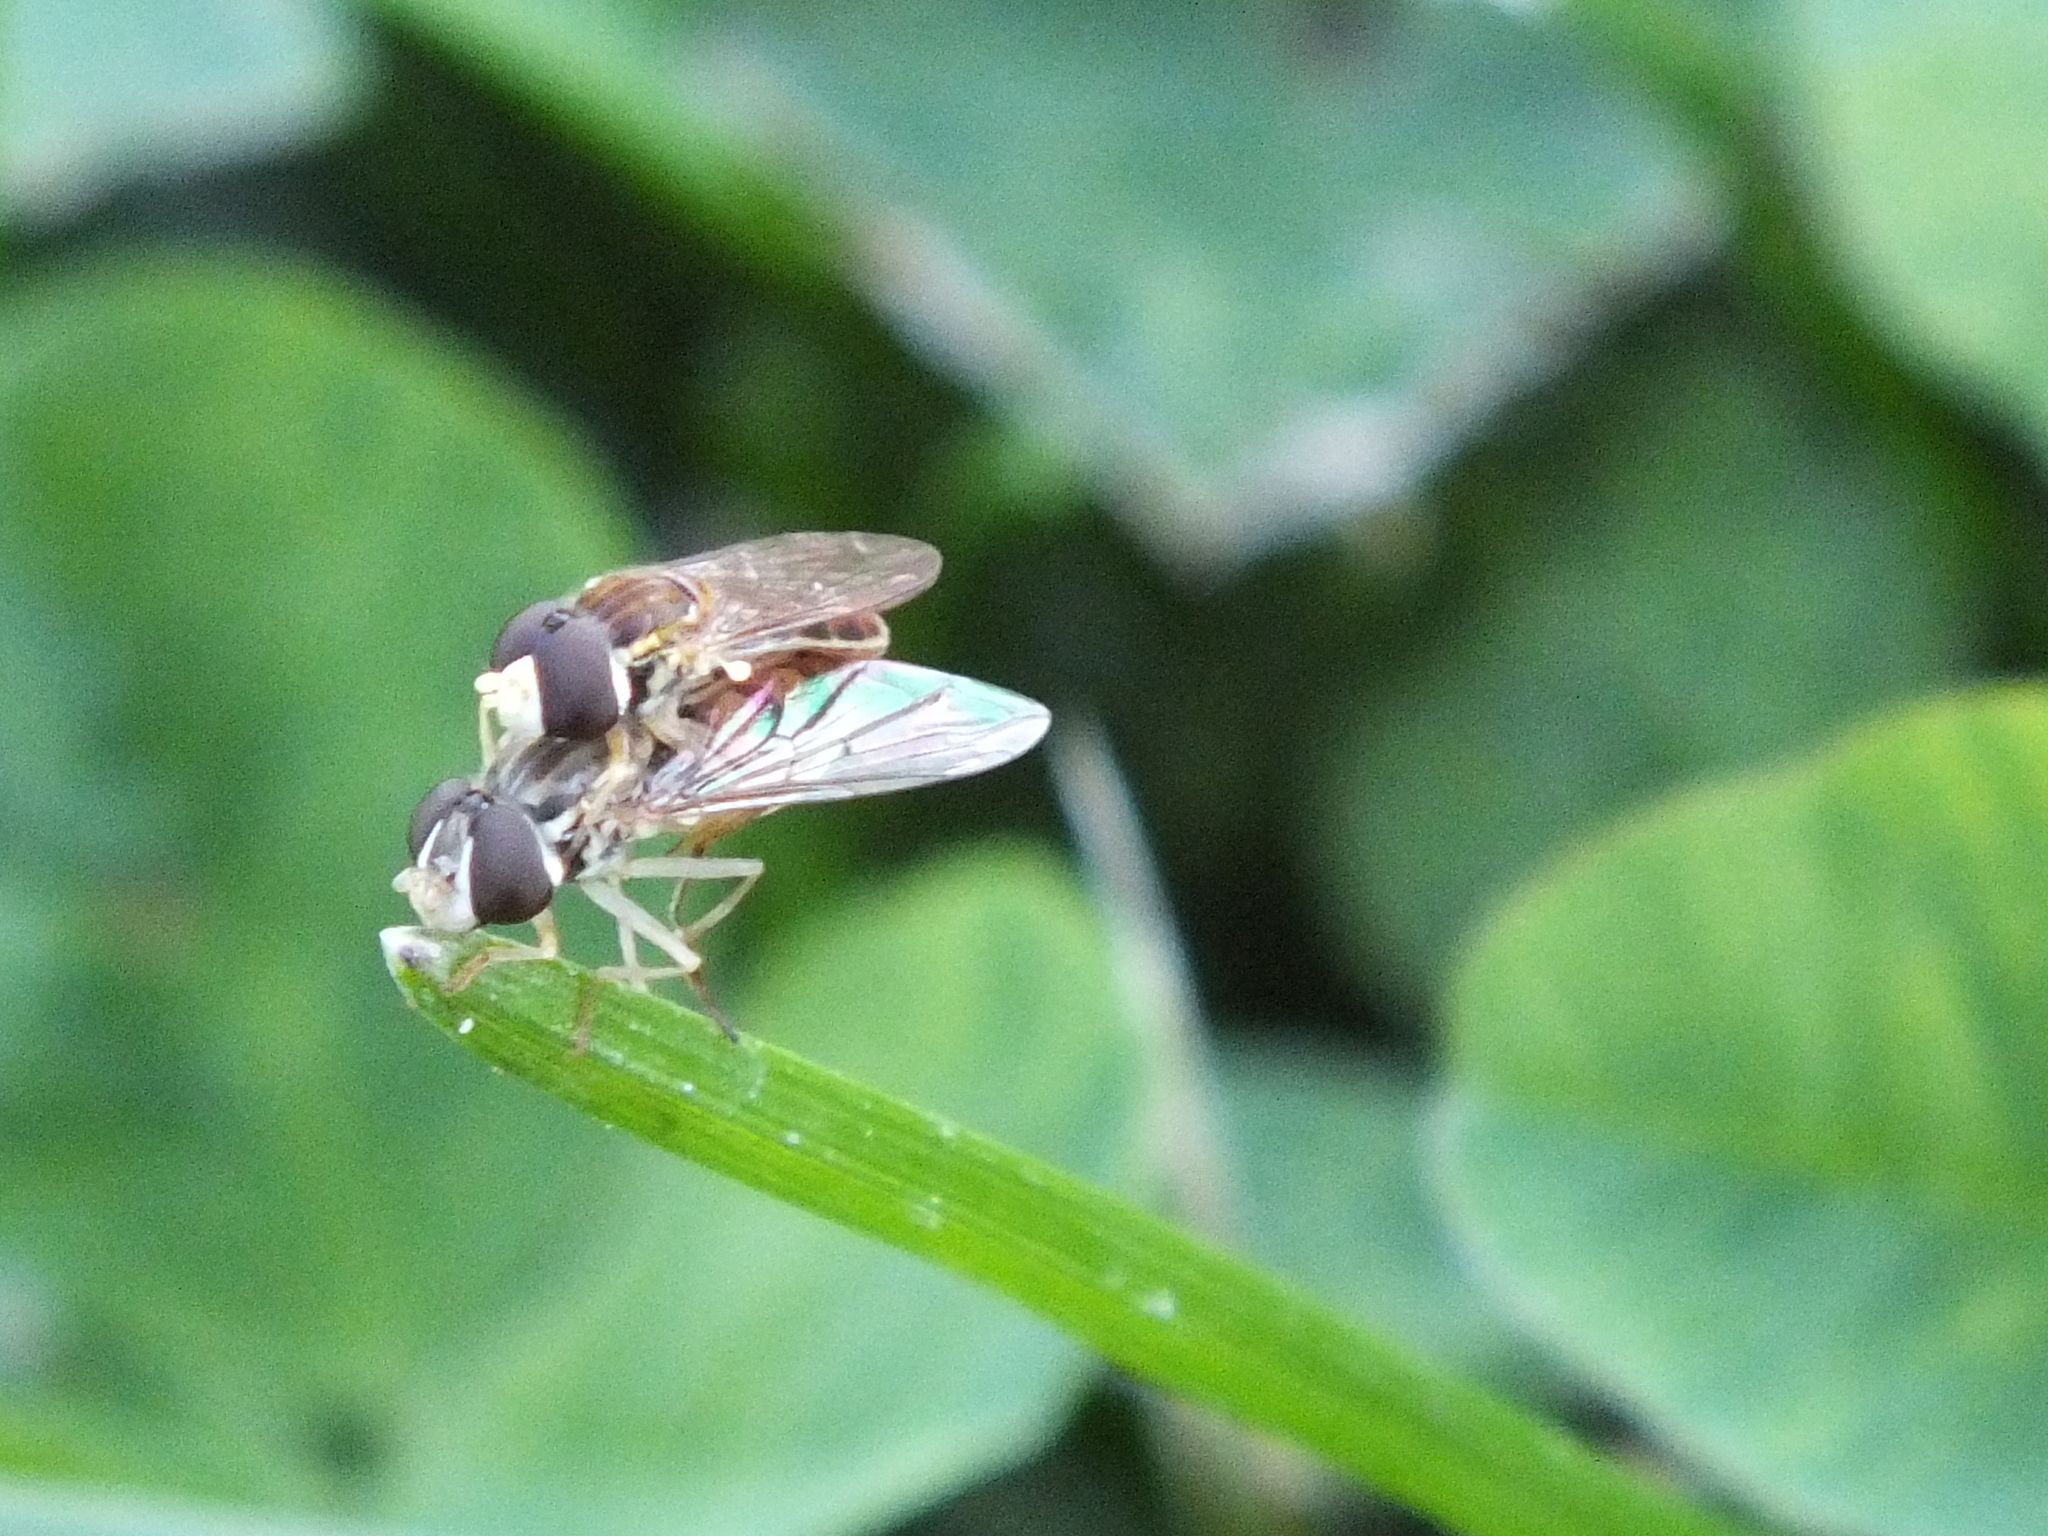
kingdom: Animalia
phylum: Arthropoda
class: Insecta
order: Diptera
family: Syrphidae
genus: Toxomerus
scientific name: Toxomerus marginatus
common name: Syrphid fly
